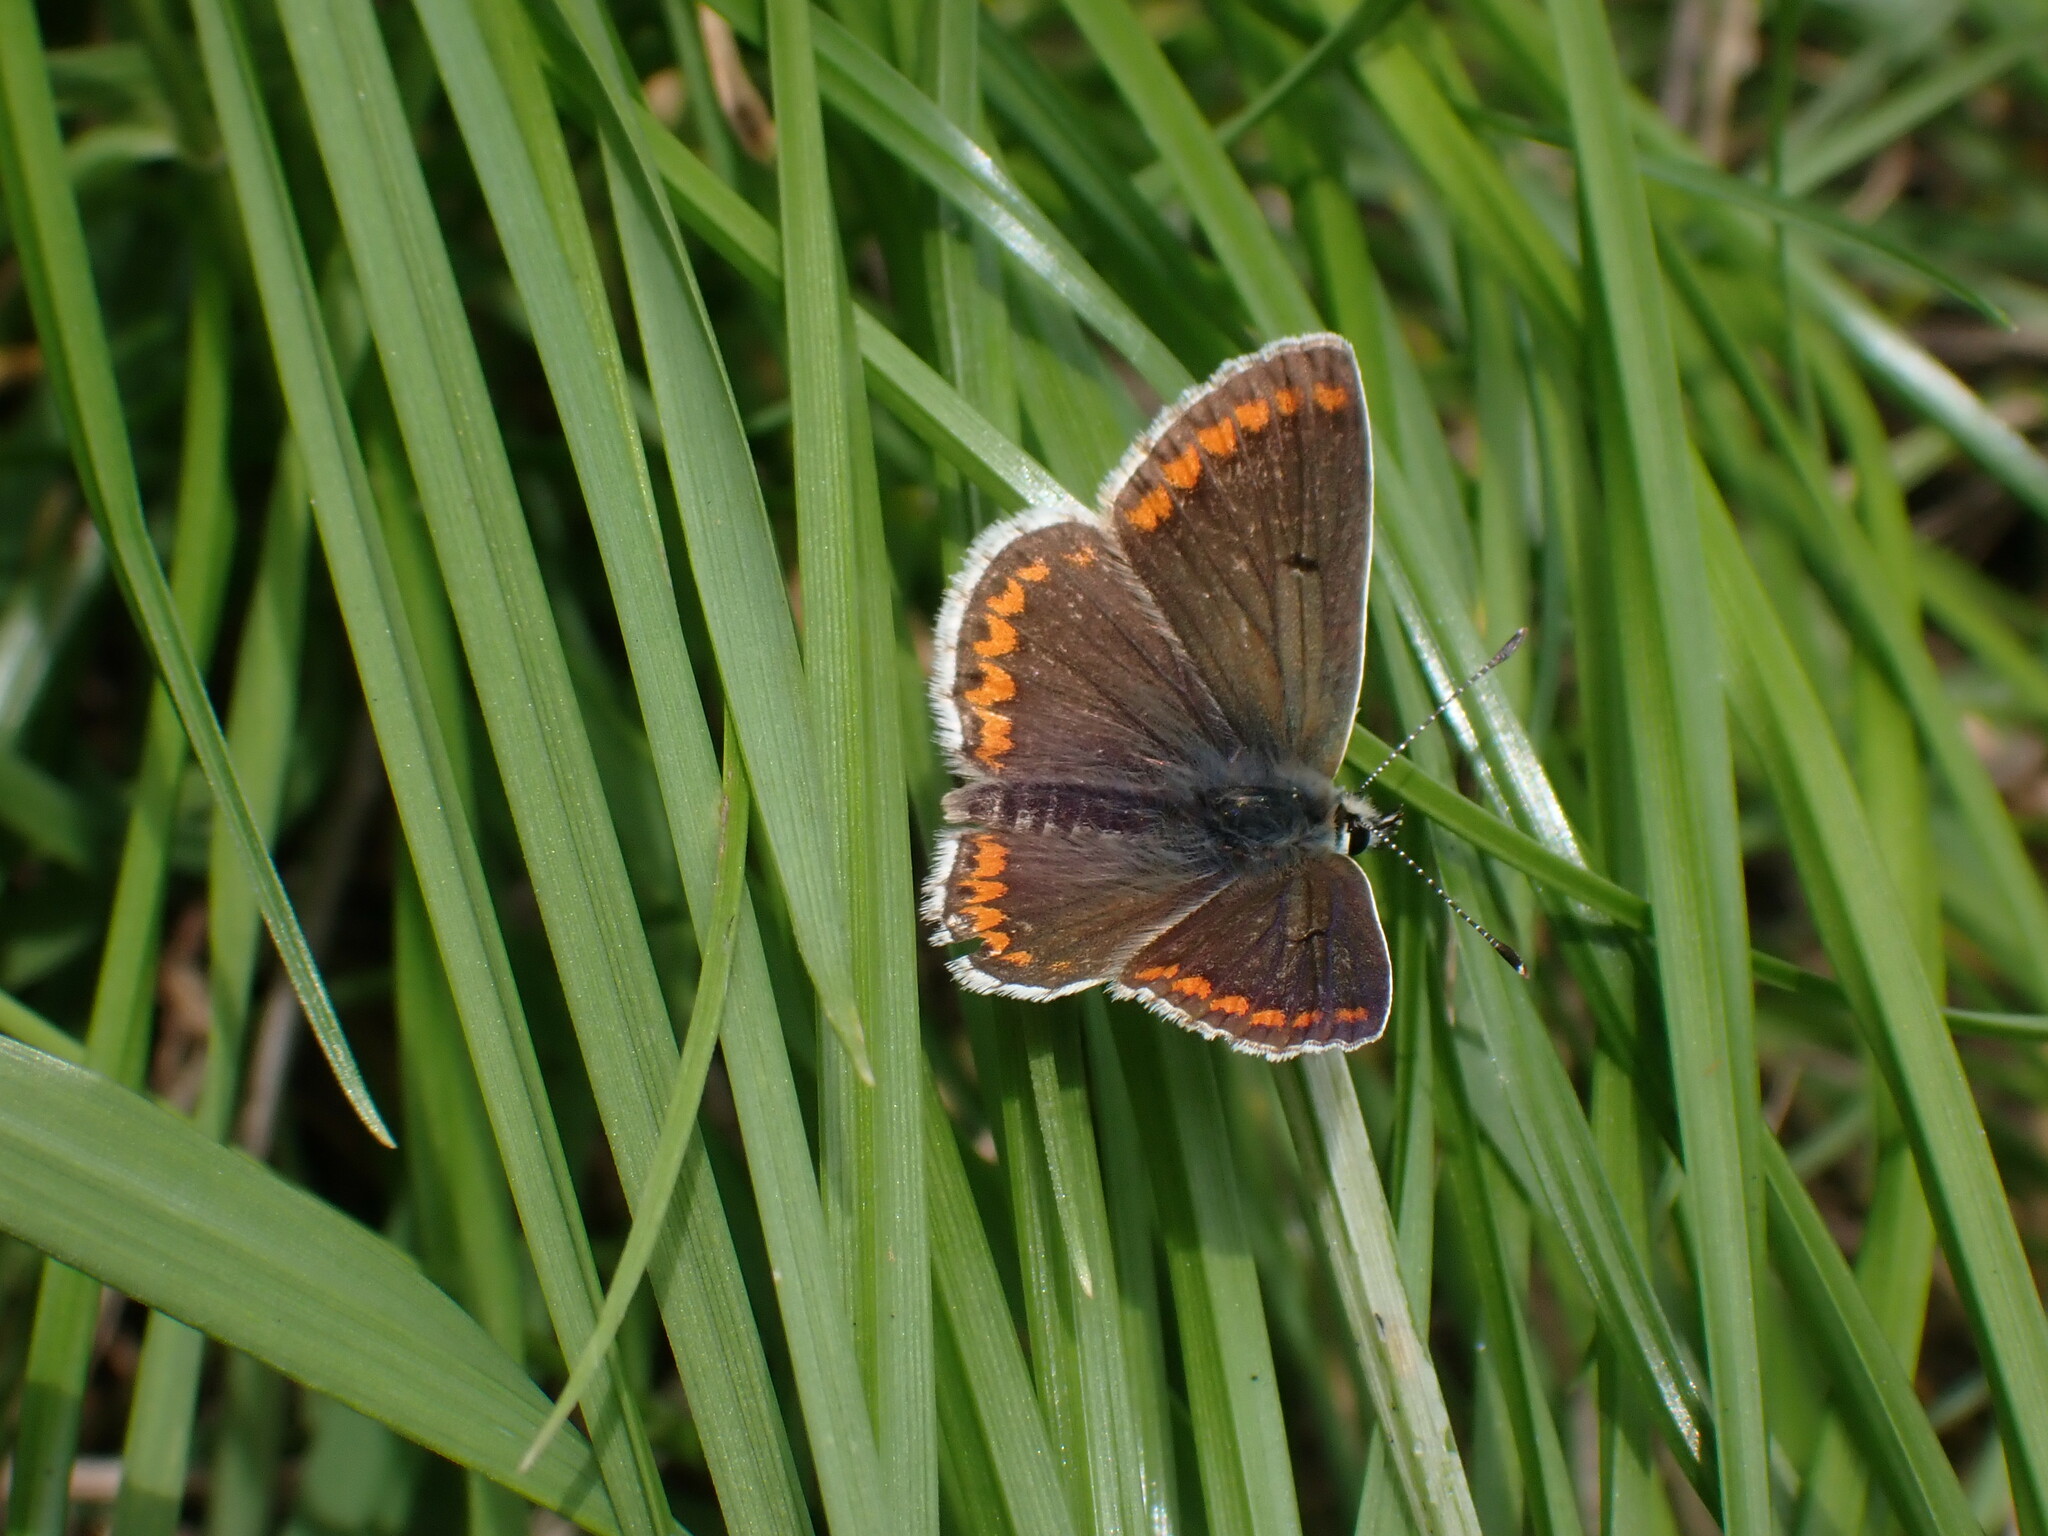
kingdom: Animalia
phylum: Arthropoda
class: Insecta
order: Lepidoptera
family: Lycaenidae
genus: Aricia
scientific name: Aricia agestis
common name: Brown argus
